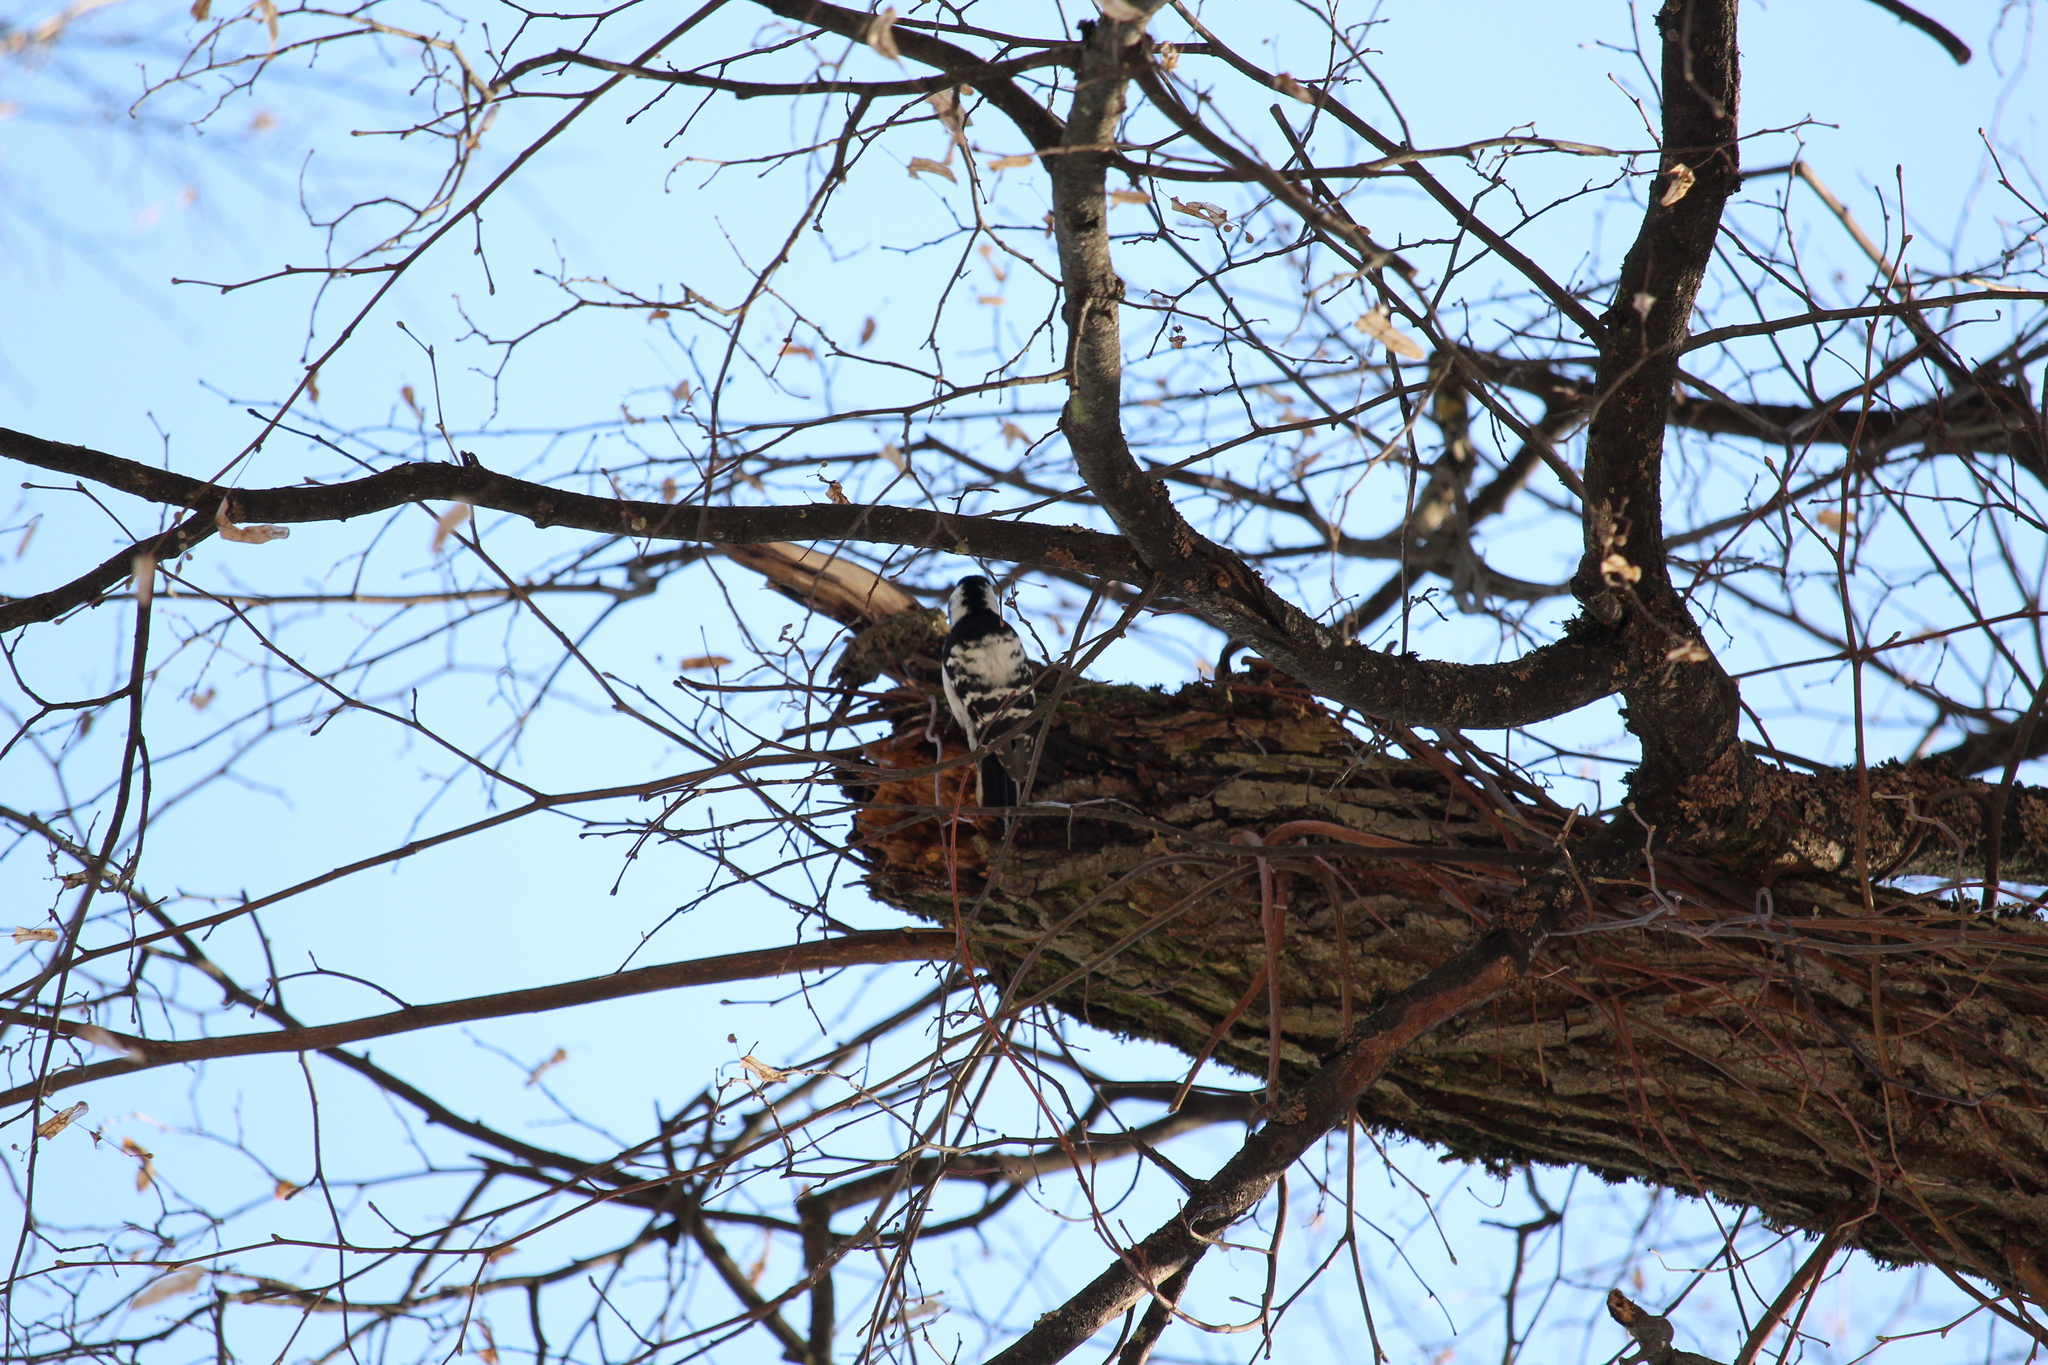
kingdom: Animalia
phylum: Chordata
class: Aves
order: Piciformes
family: Picidae
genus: Dryobates
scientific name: Dryobates minor
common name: Lesser spotted woodpecker
